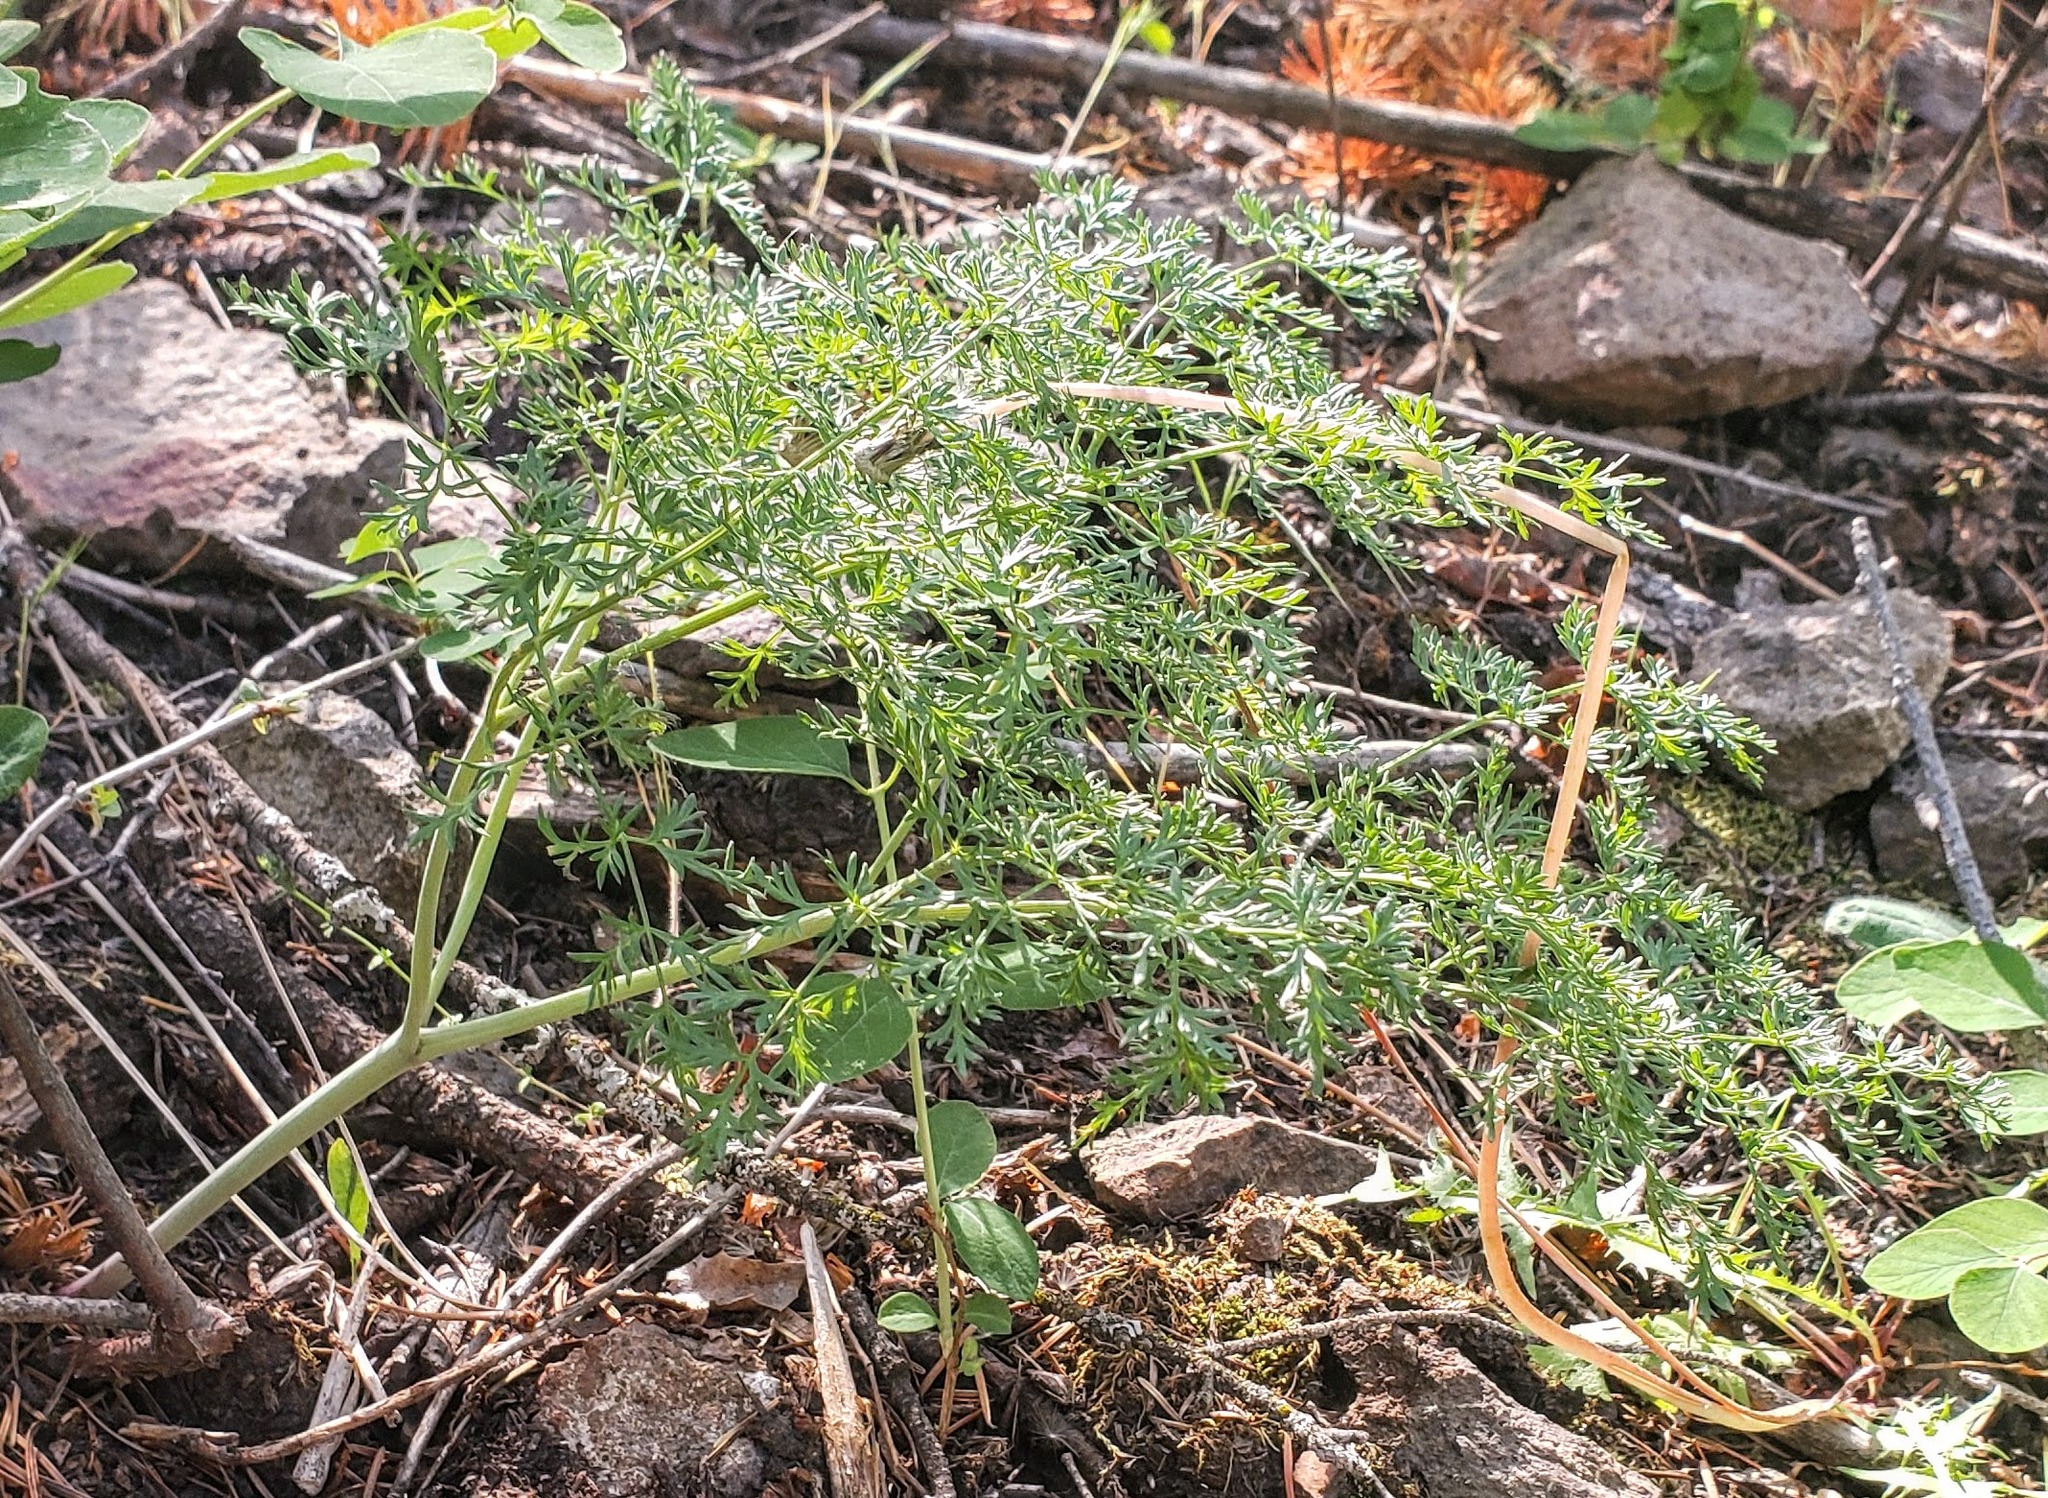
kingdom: Plantae
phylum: Tracheophyta
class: Magnoliopsida
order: Apiales
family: Apiaceae
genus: Lomatium
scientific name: Lomatium multifidum
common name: Carrot-leaved biscuitroot
